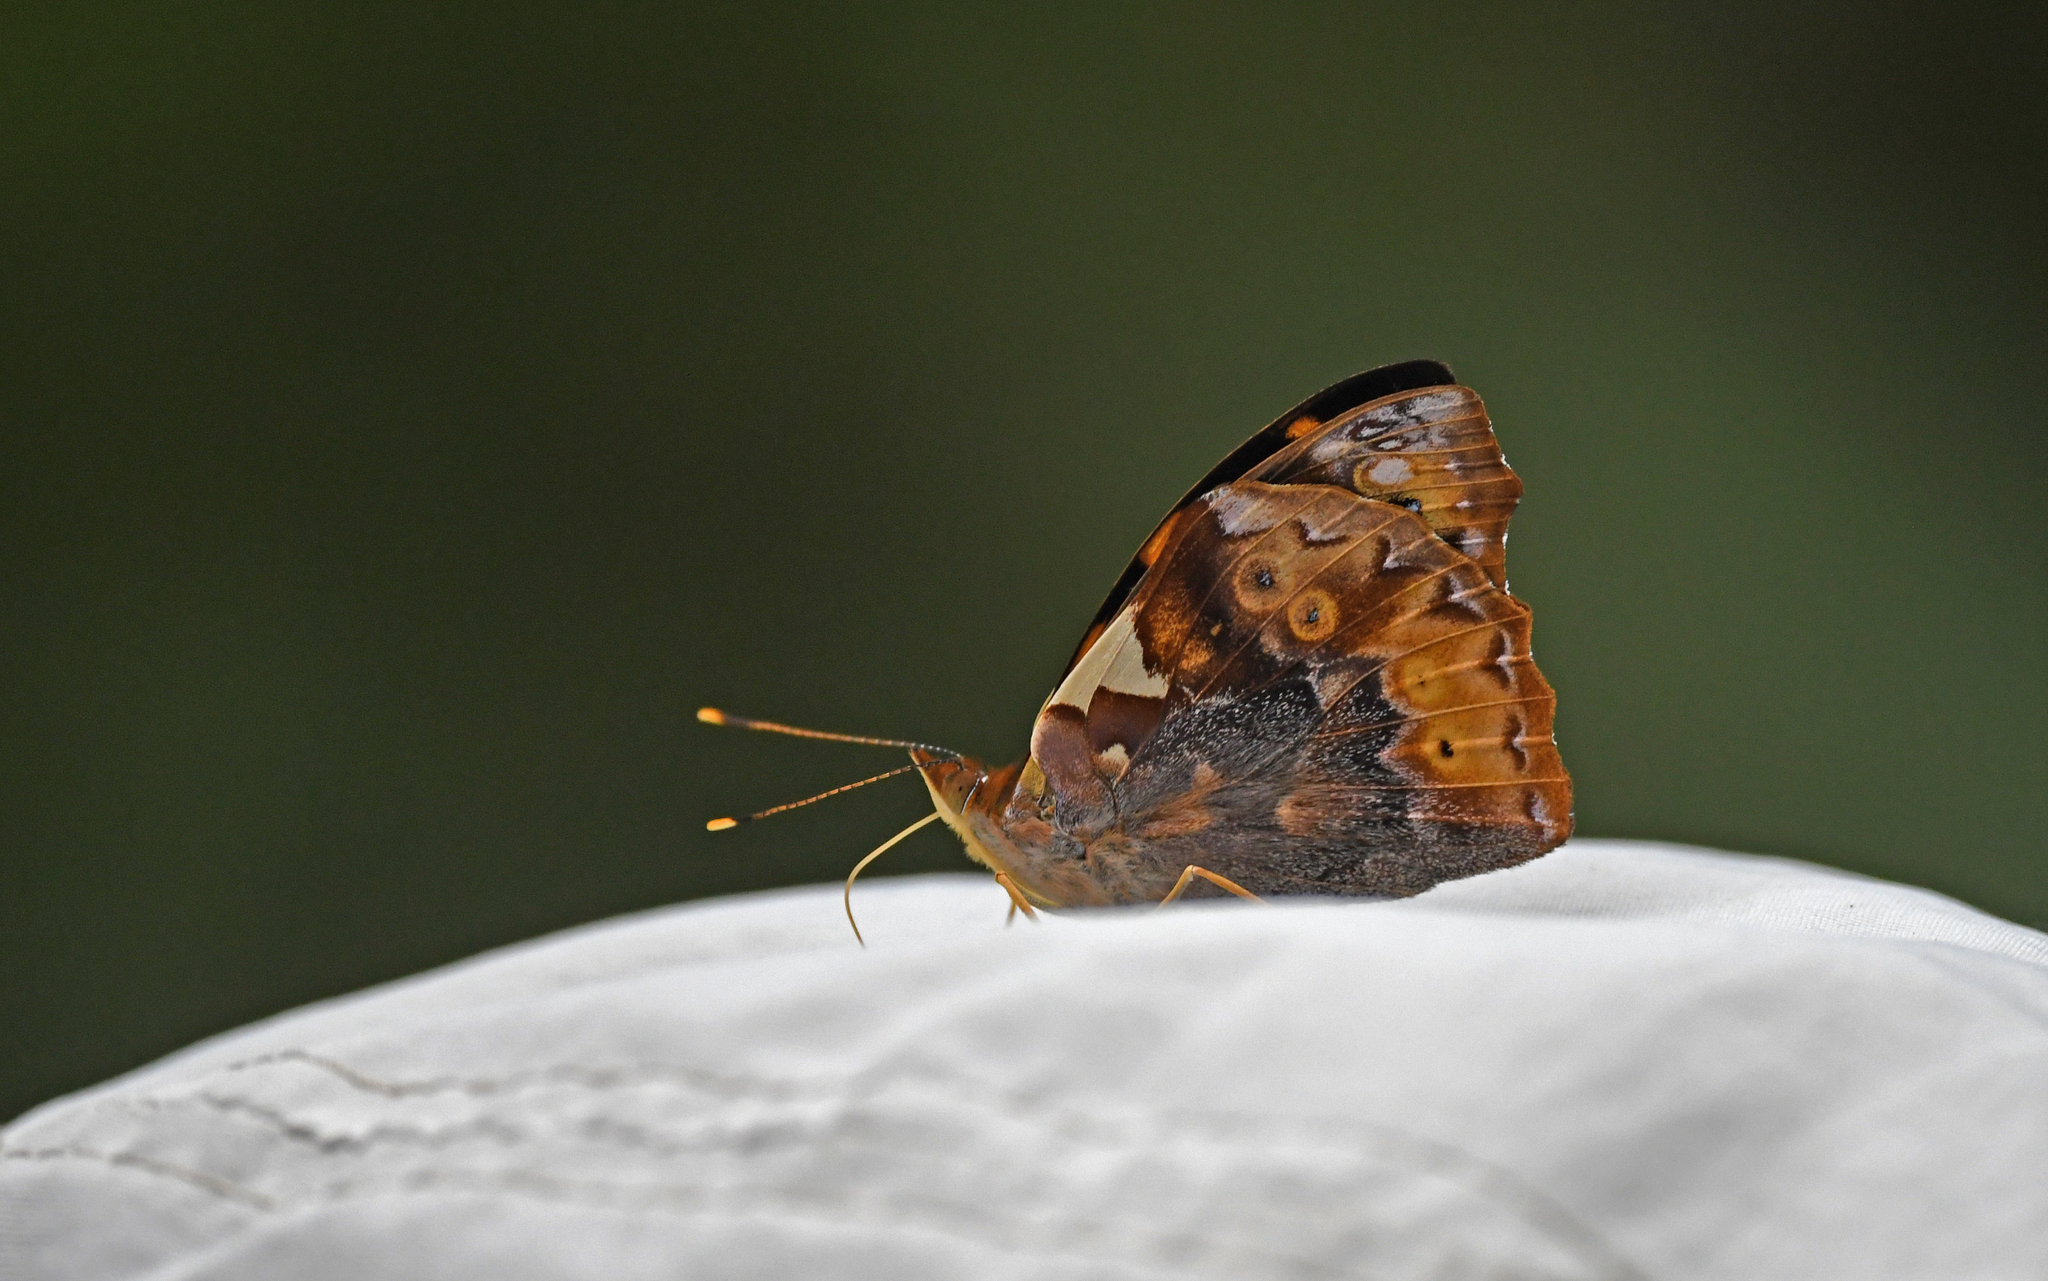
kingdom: Animalia
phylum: Arthropoda
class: Insecta
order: Lepidoptera
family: Nymphalidae
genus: Epiphile
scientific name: Epiphile chrysites
